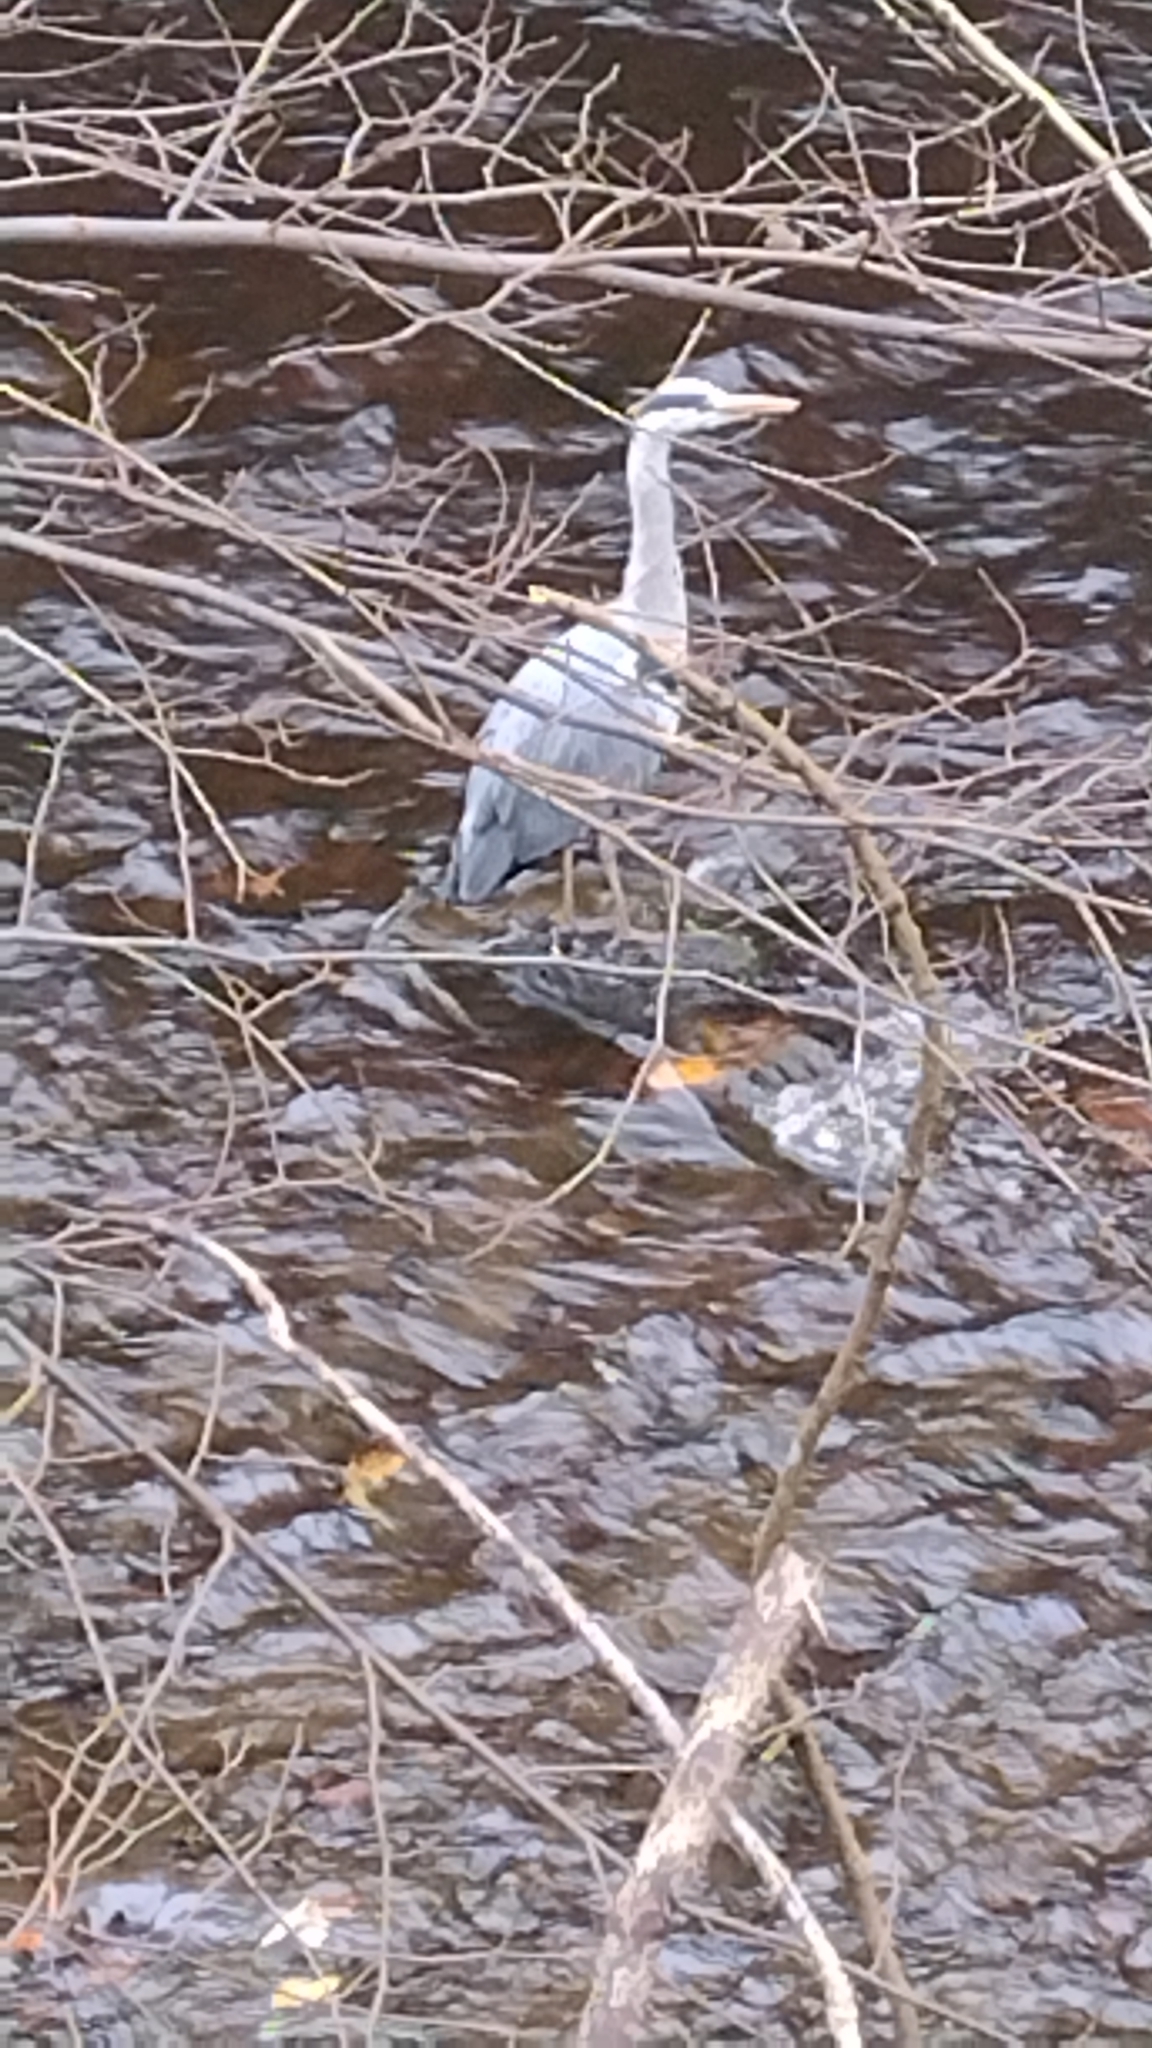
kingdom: Animalia
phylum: Chordata
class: Aves
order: Pelecaniformes
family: Ardeidae
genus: Ardea
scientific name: Ardea cinerea
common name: Grey heron
